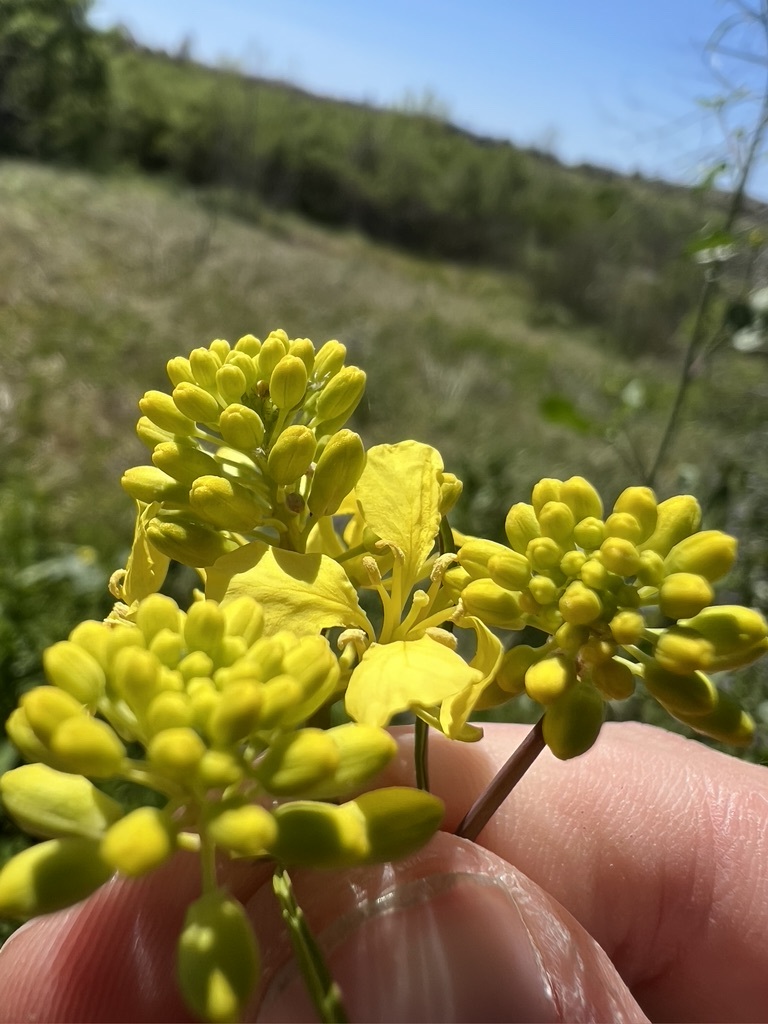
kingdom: Plantae
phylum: Tracheophyta
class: Magnoliopsida
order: Brassicales
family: Brassicaceae
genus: Brassica
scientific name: Brassica nigra
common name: Black mustard
